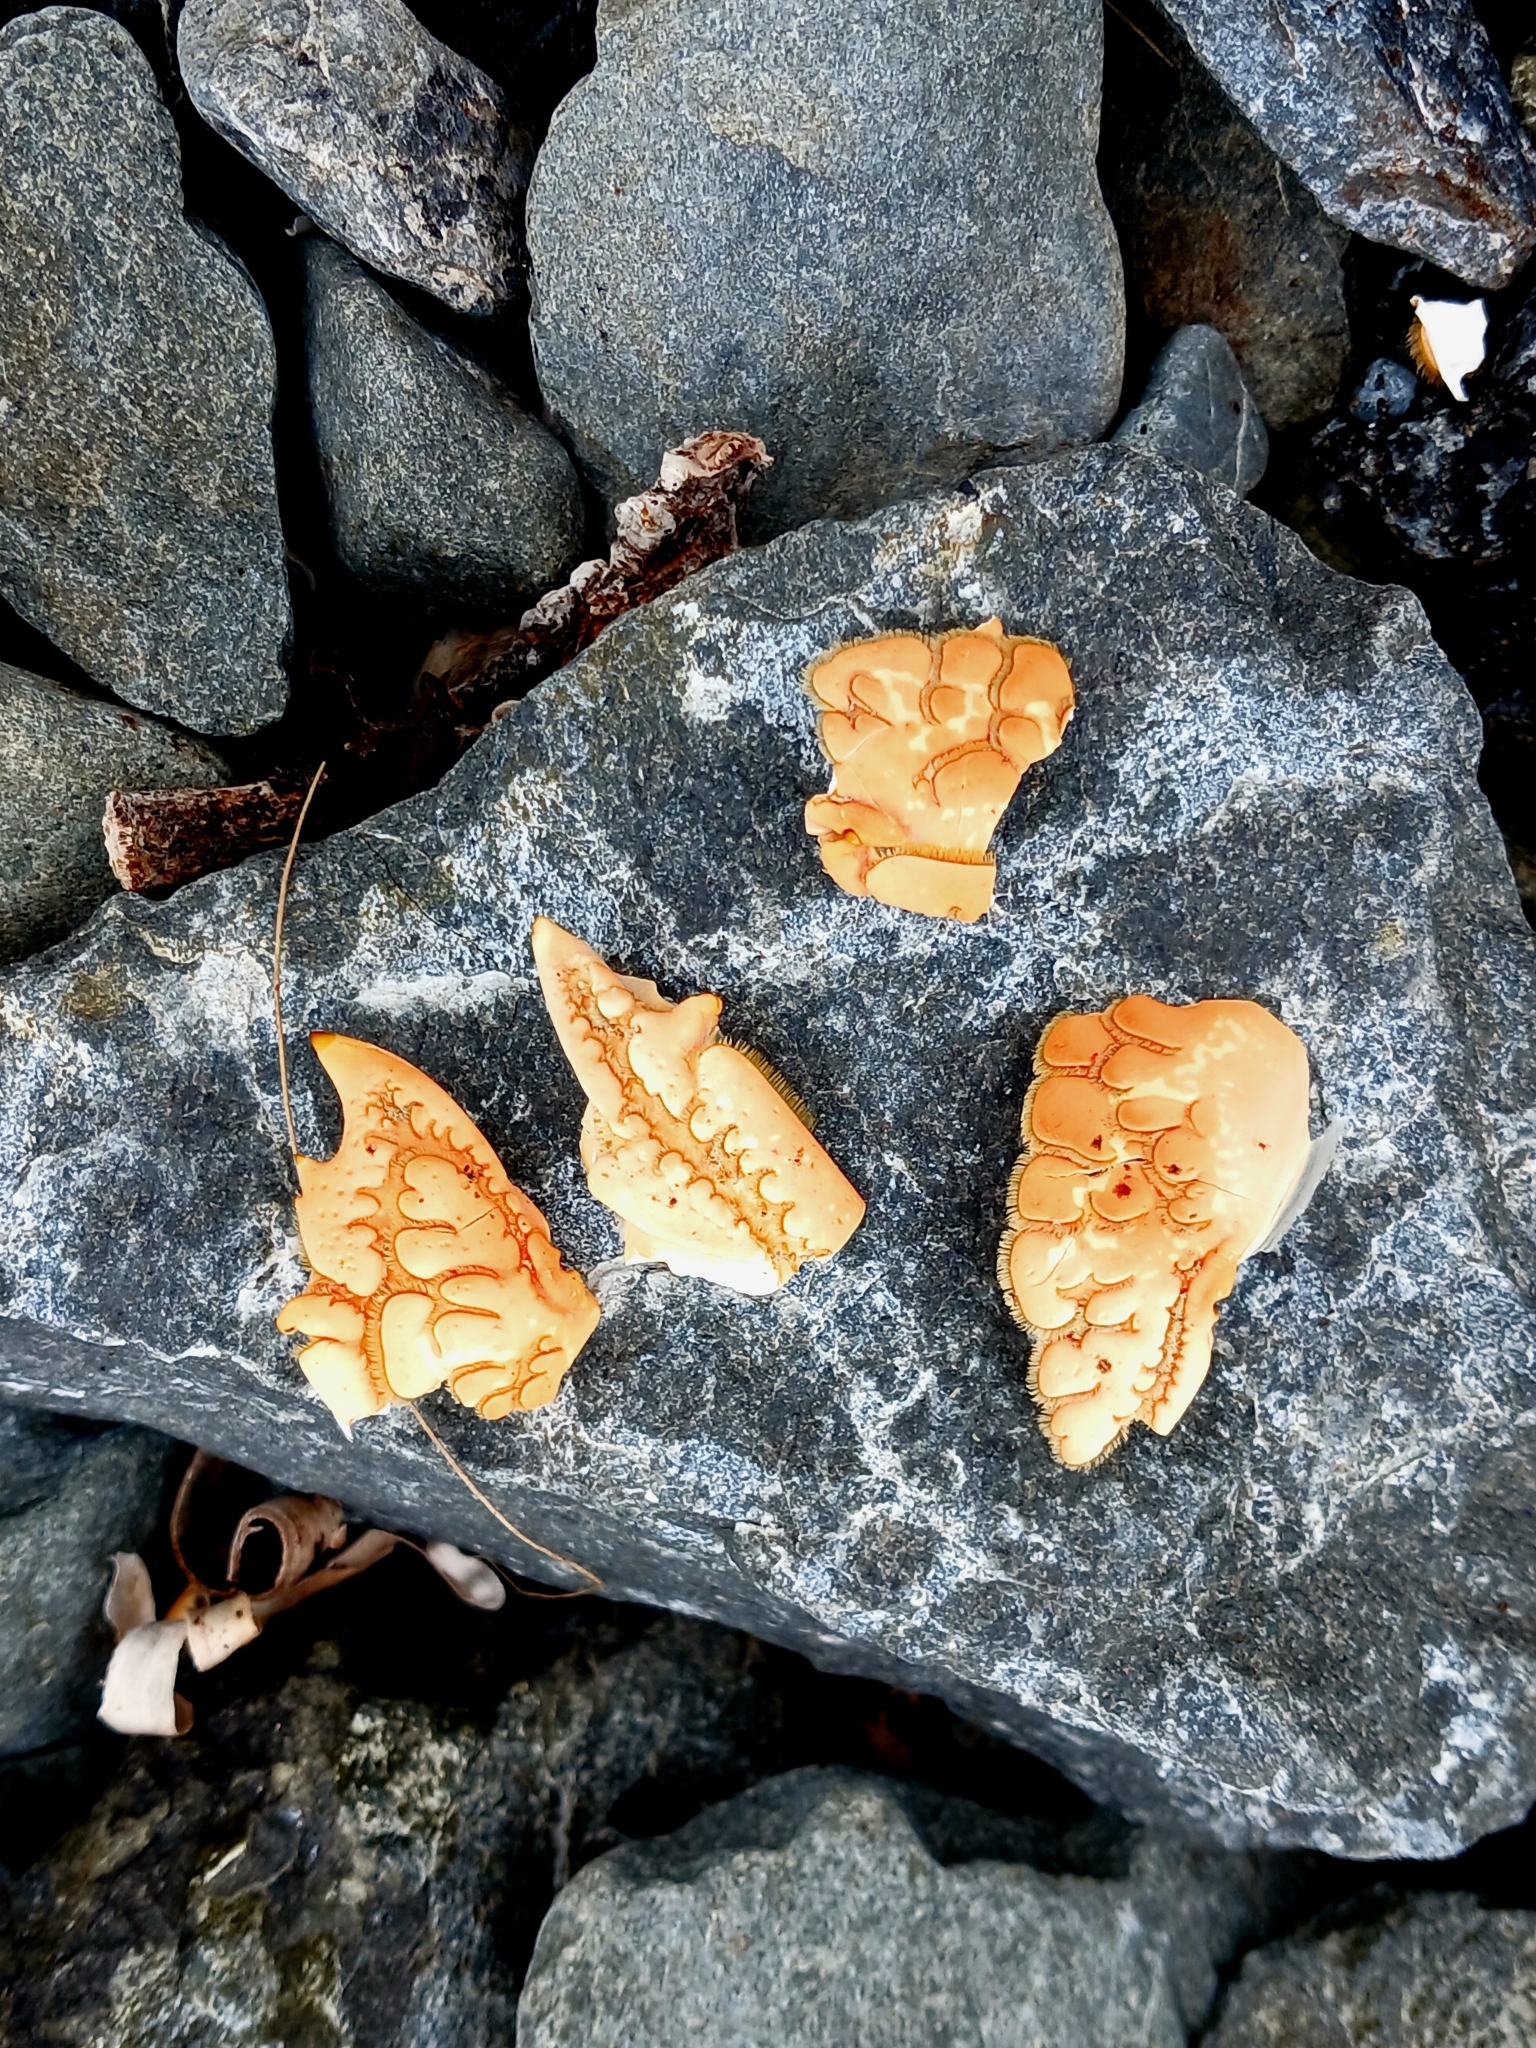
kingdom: Animalia
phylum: Arthropoda
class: Malacostraca
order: Decapoda
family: Palinuridae
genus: Jasus
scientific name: Jasus edwardsii
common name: Red rock lobster
